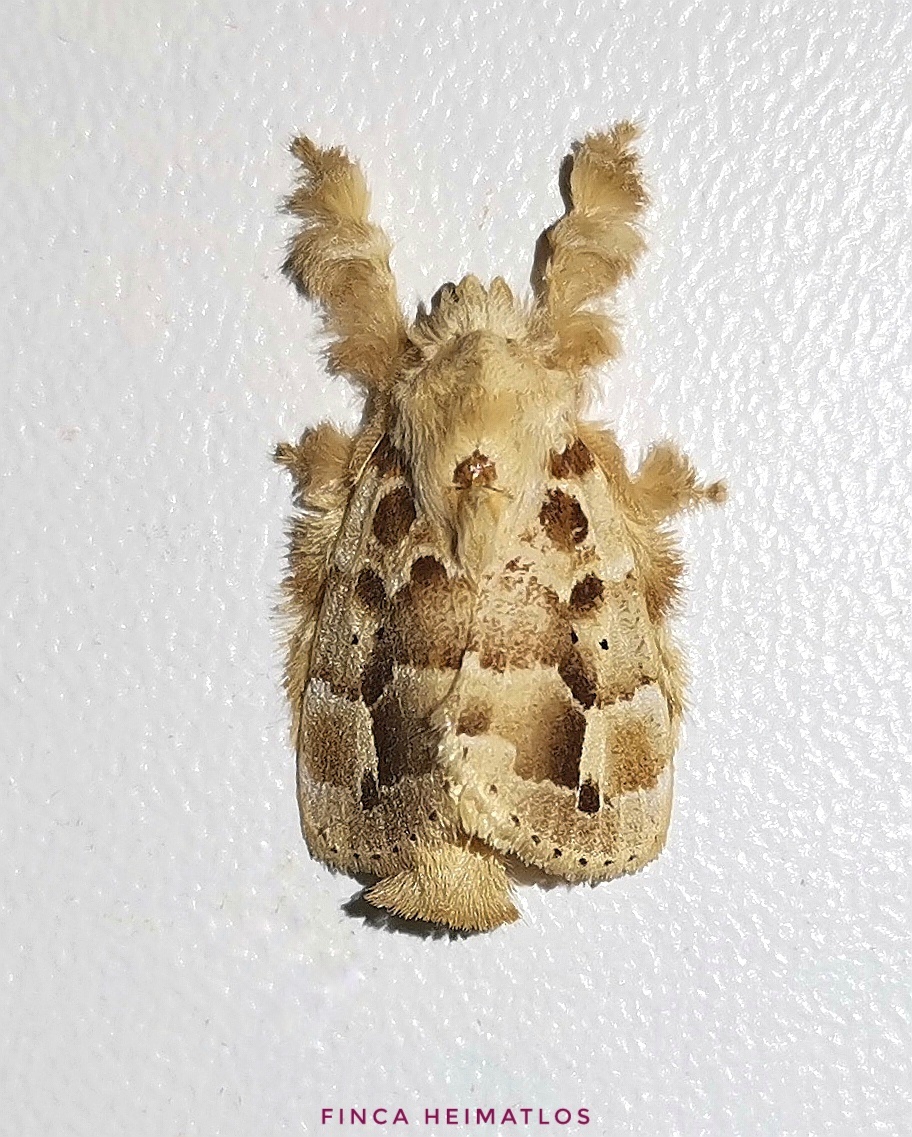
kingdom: Animalia
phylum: Arthropoda
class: Insecta
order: Lepidoptera
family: Lasiocampidae
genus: Nesara
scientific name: Nesara laurina
